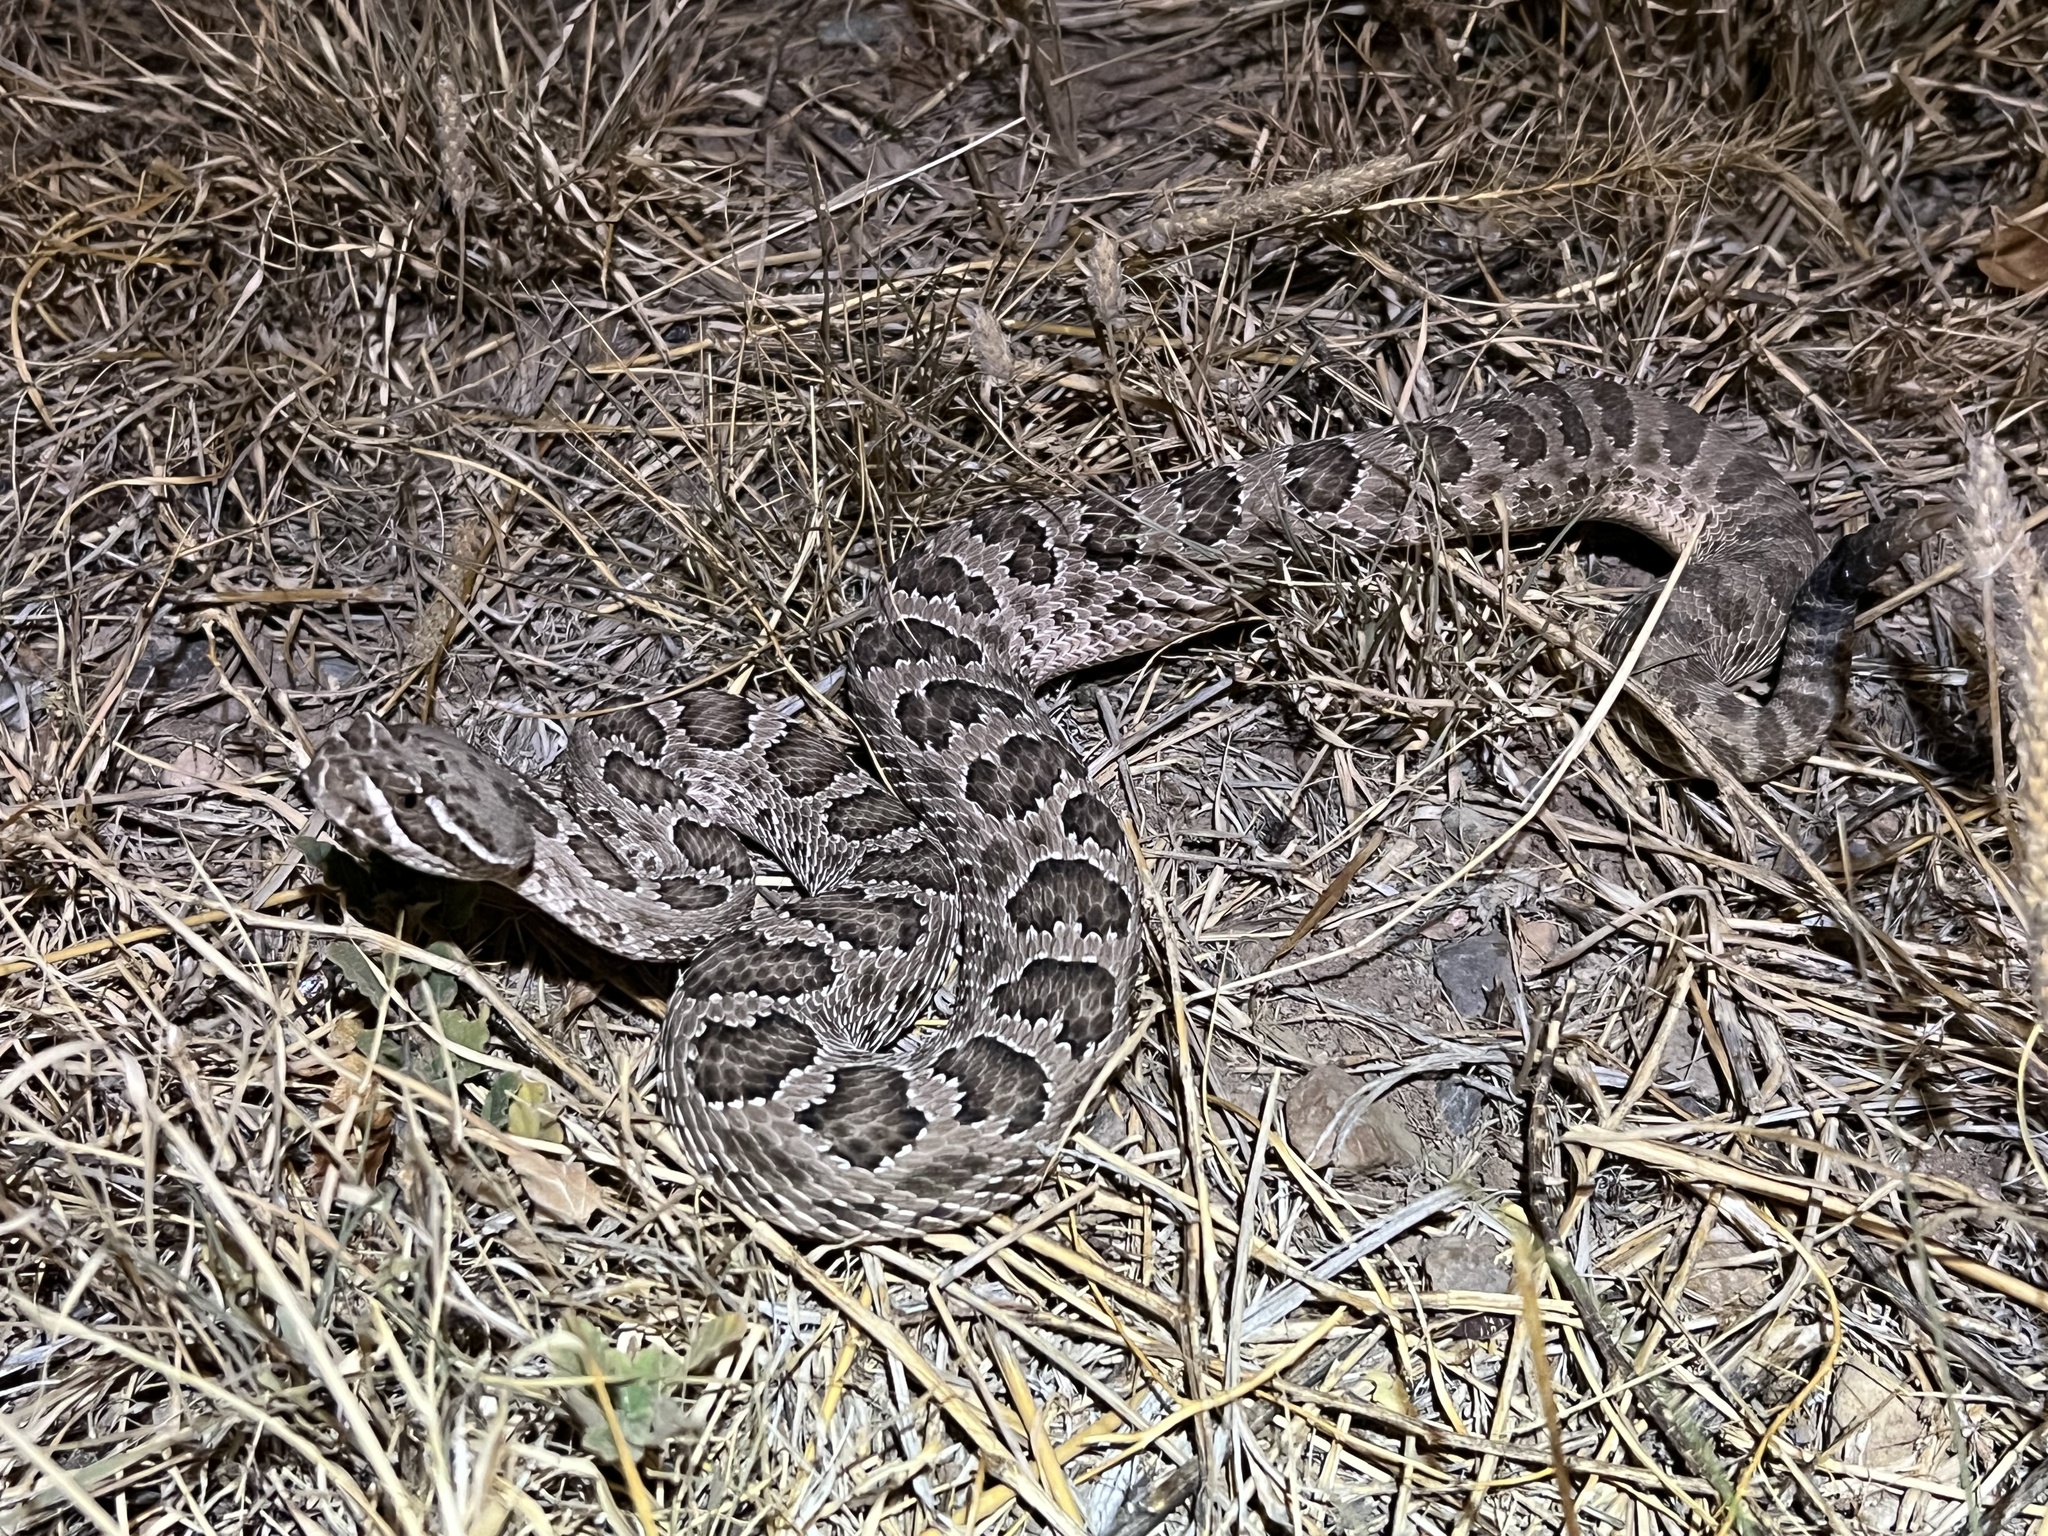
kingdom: Animalia
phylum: Chordata
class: Squamata
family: Viperidae
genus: Crotalus
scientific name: Crotalus viridis
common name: Prairie rattlesnake
